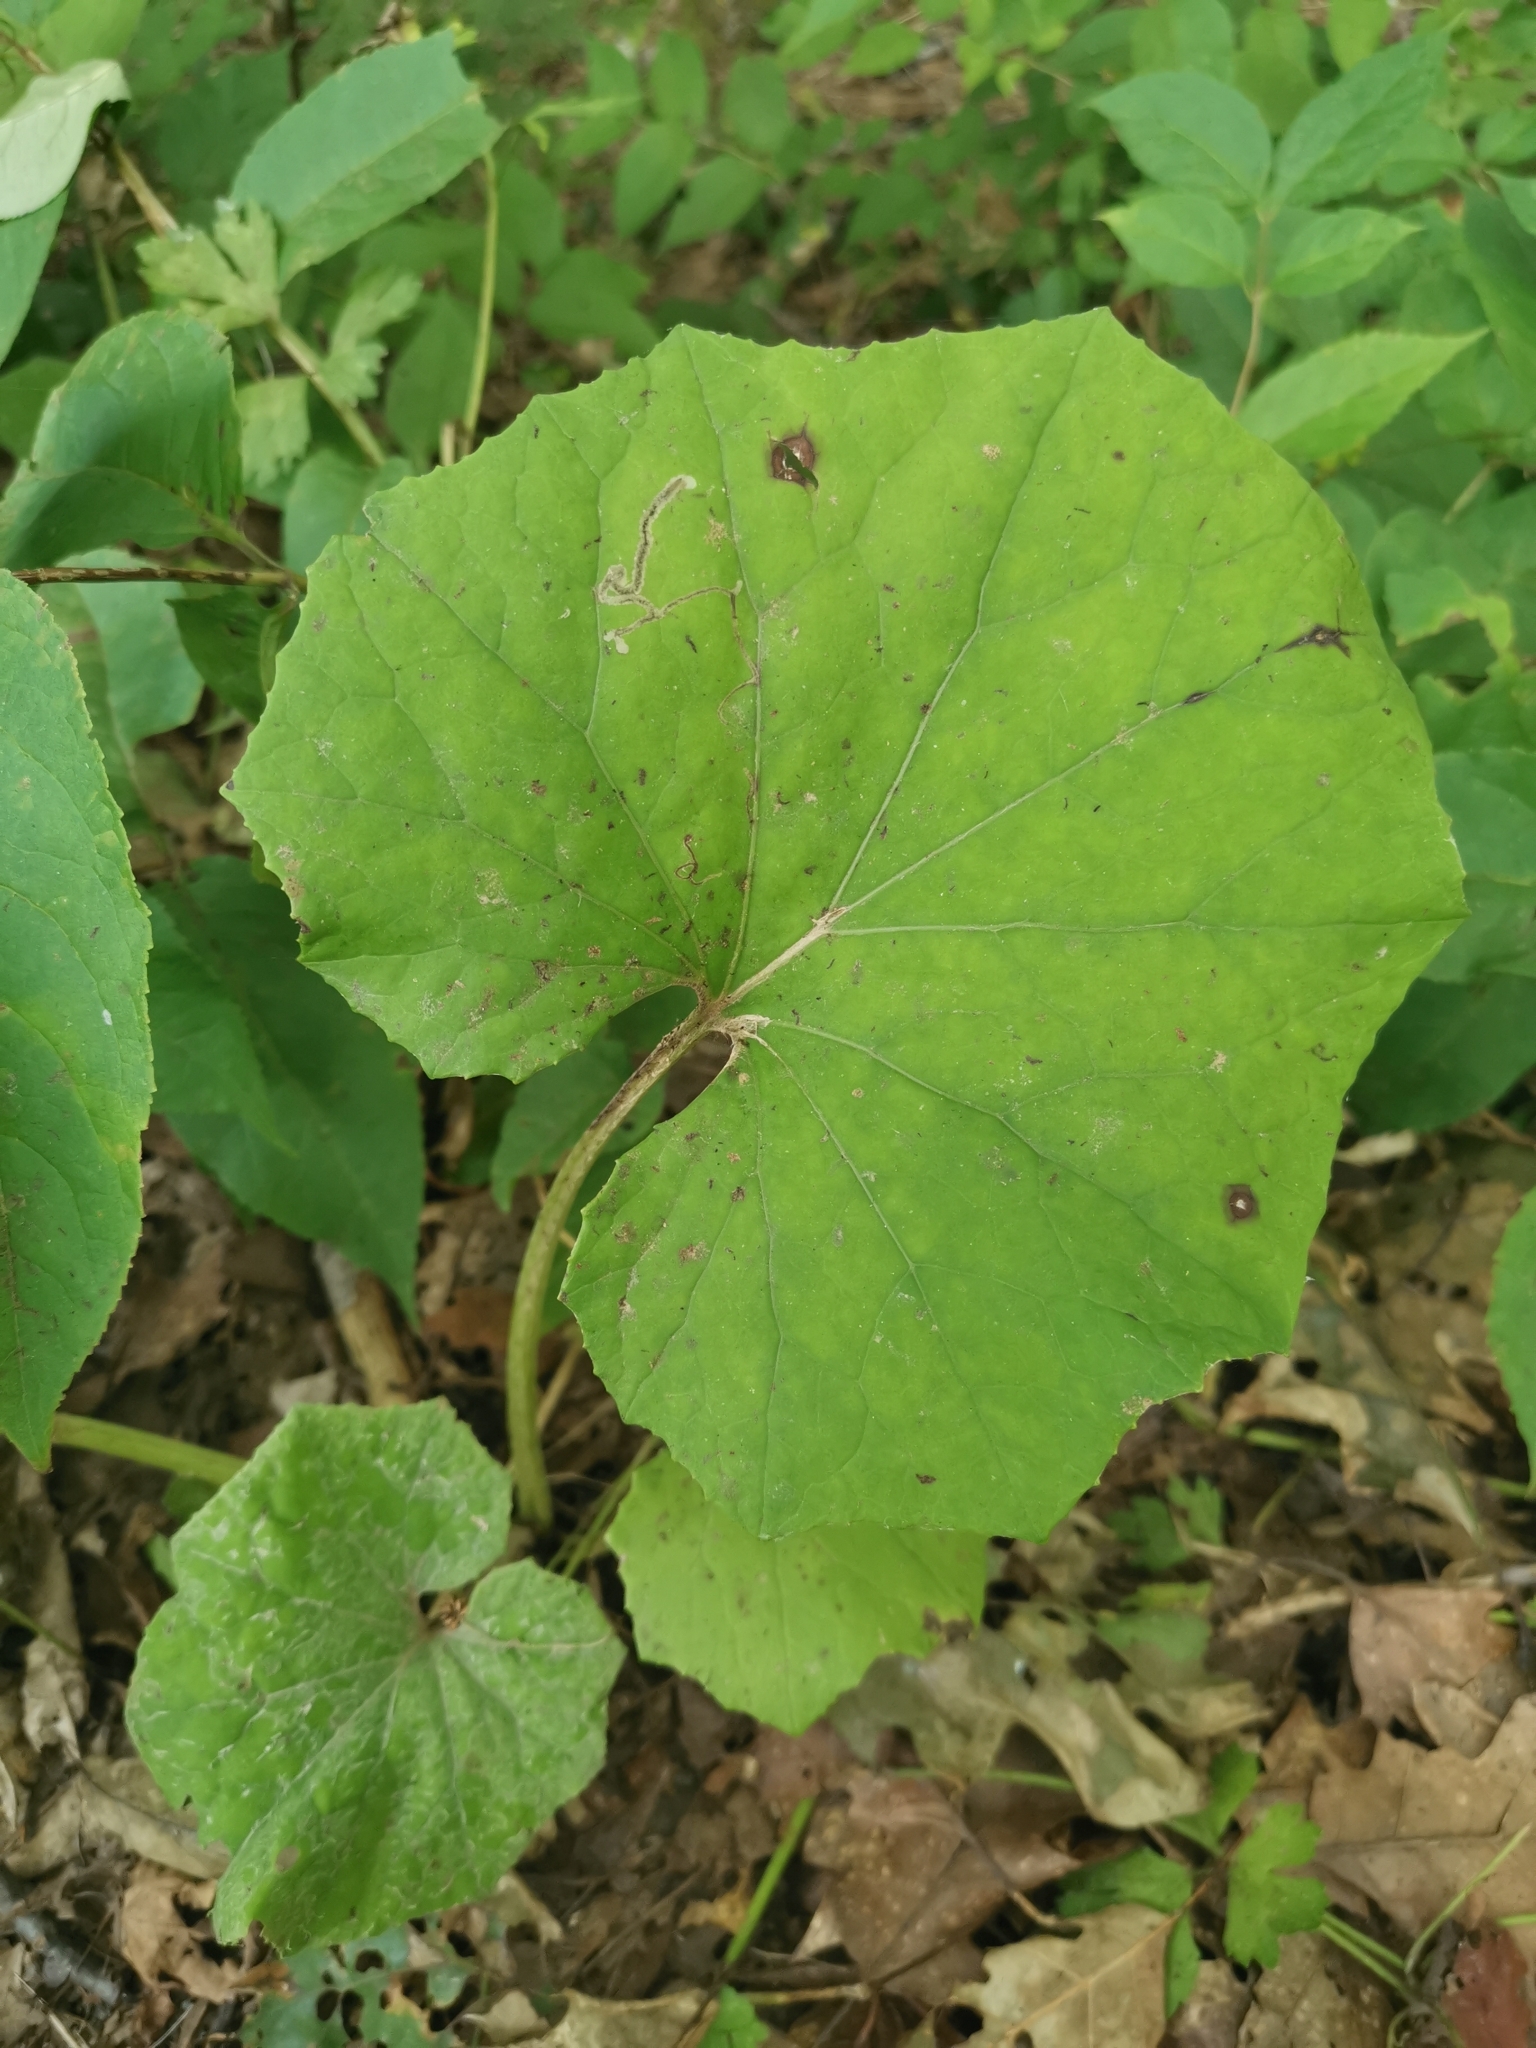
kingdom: Plantae
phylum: Tracheophyta
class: Magnoliopsida
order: Asterales
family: Asteraceae
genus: Tussilago
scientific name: Tussilago farfara
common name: Coltsfoot
